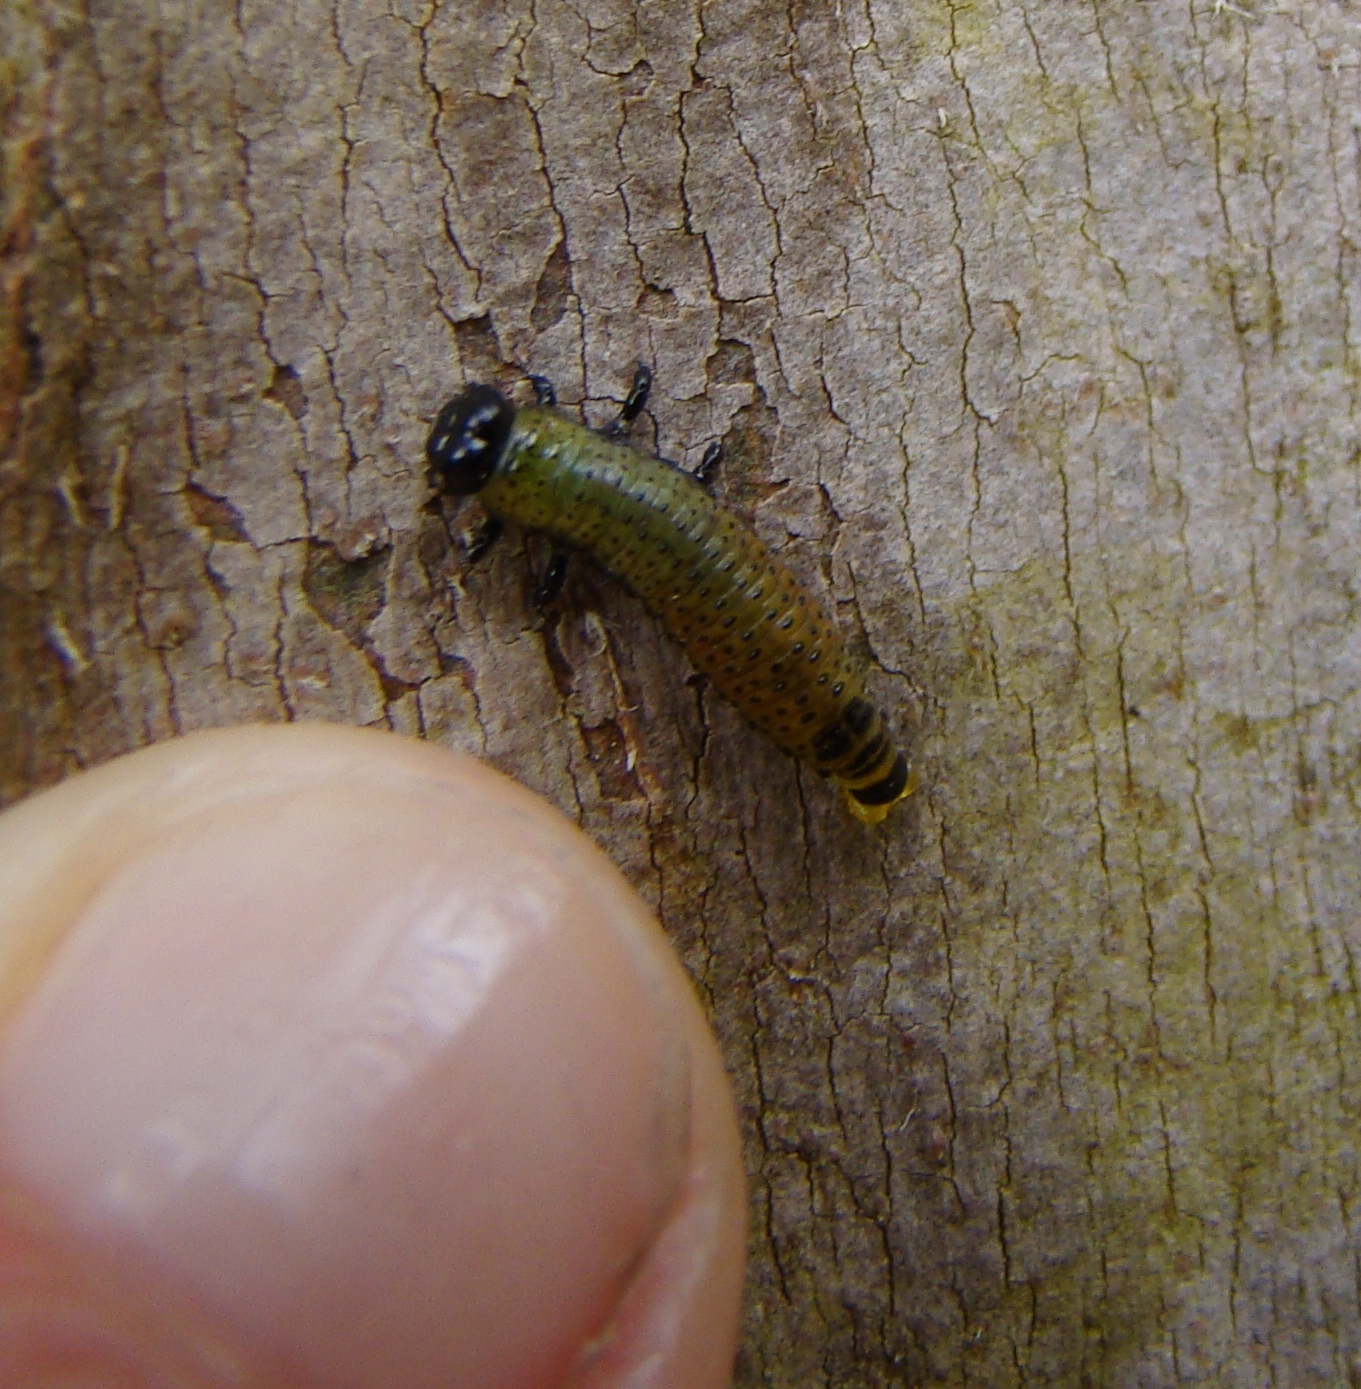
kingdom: Animalia
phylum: Arthropoda
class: Insecta
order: Coleoptera
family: Chrysomelidae
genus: Paropsis
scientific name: Paropsis charybdis
